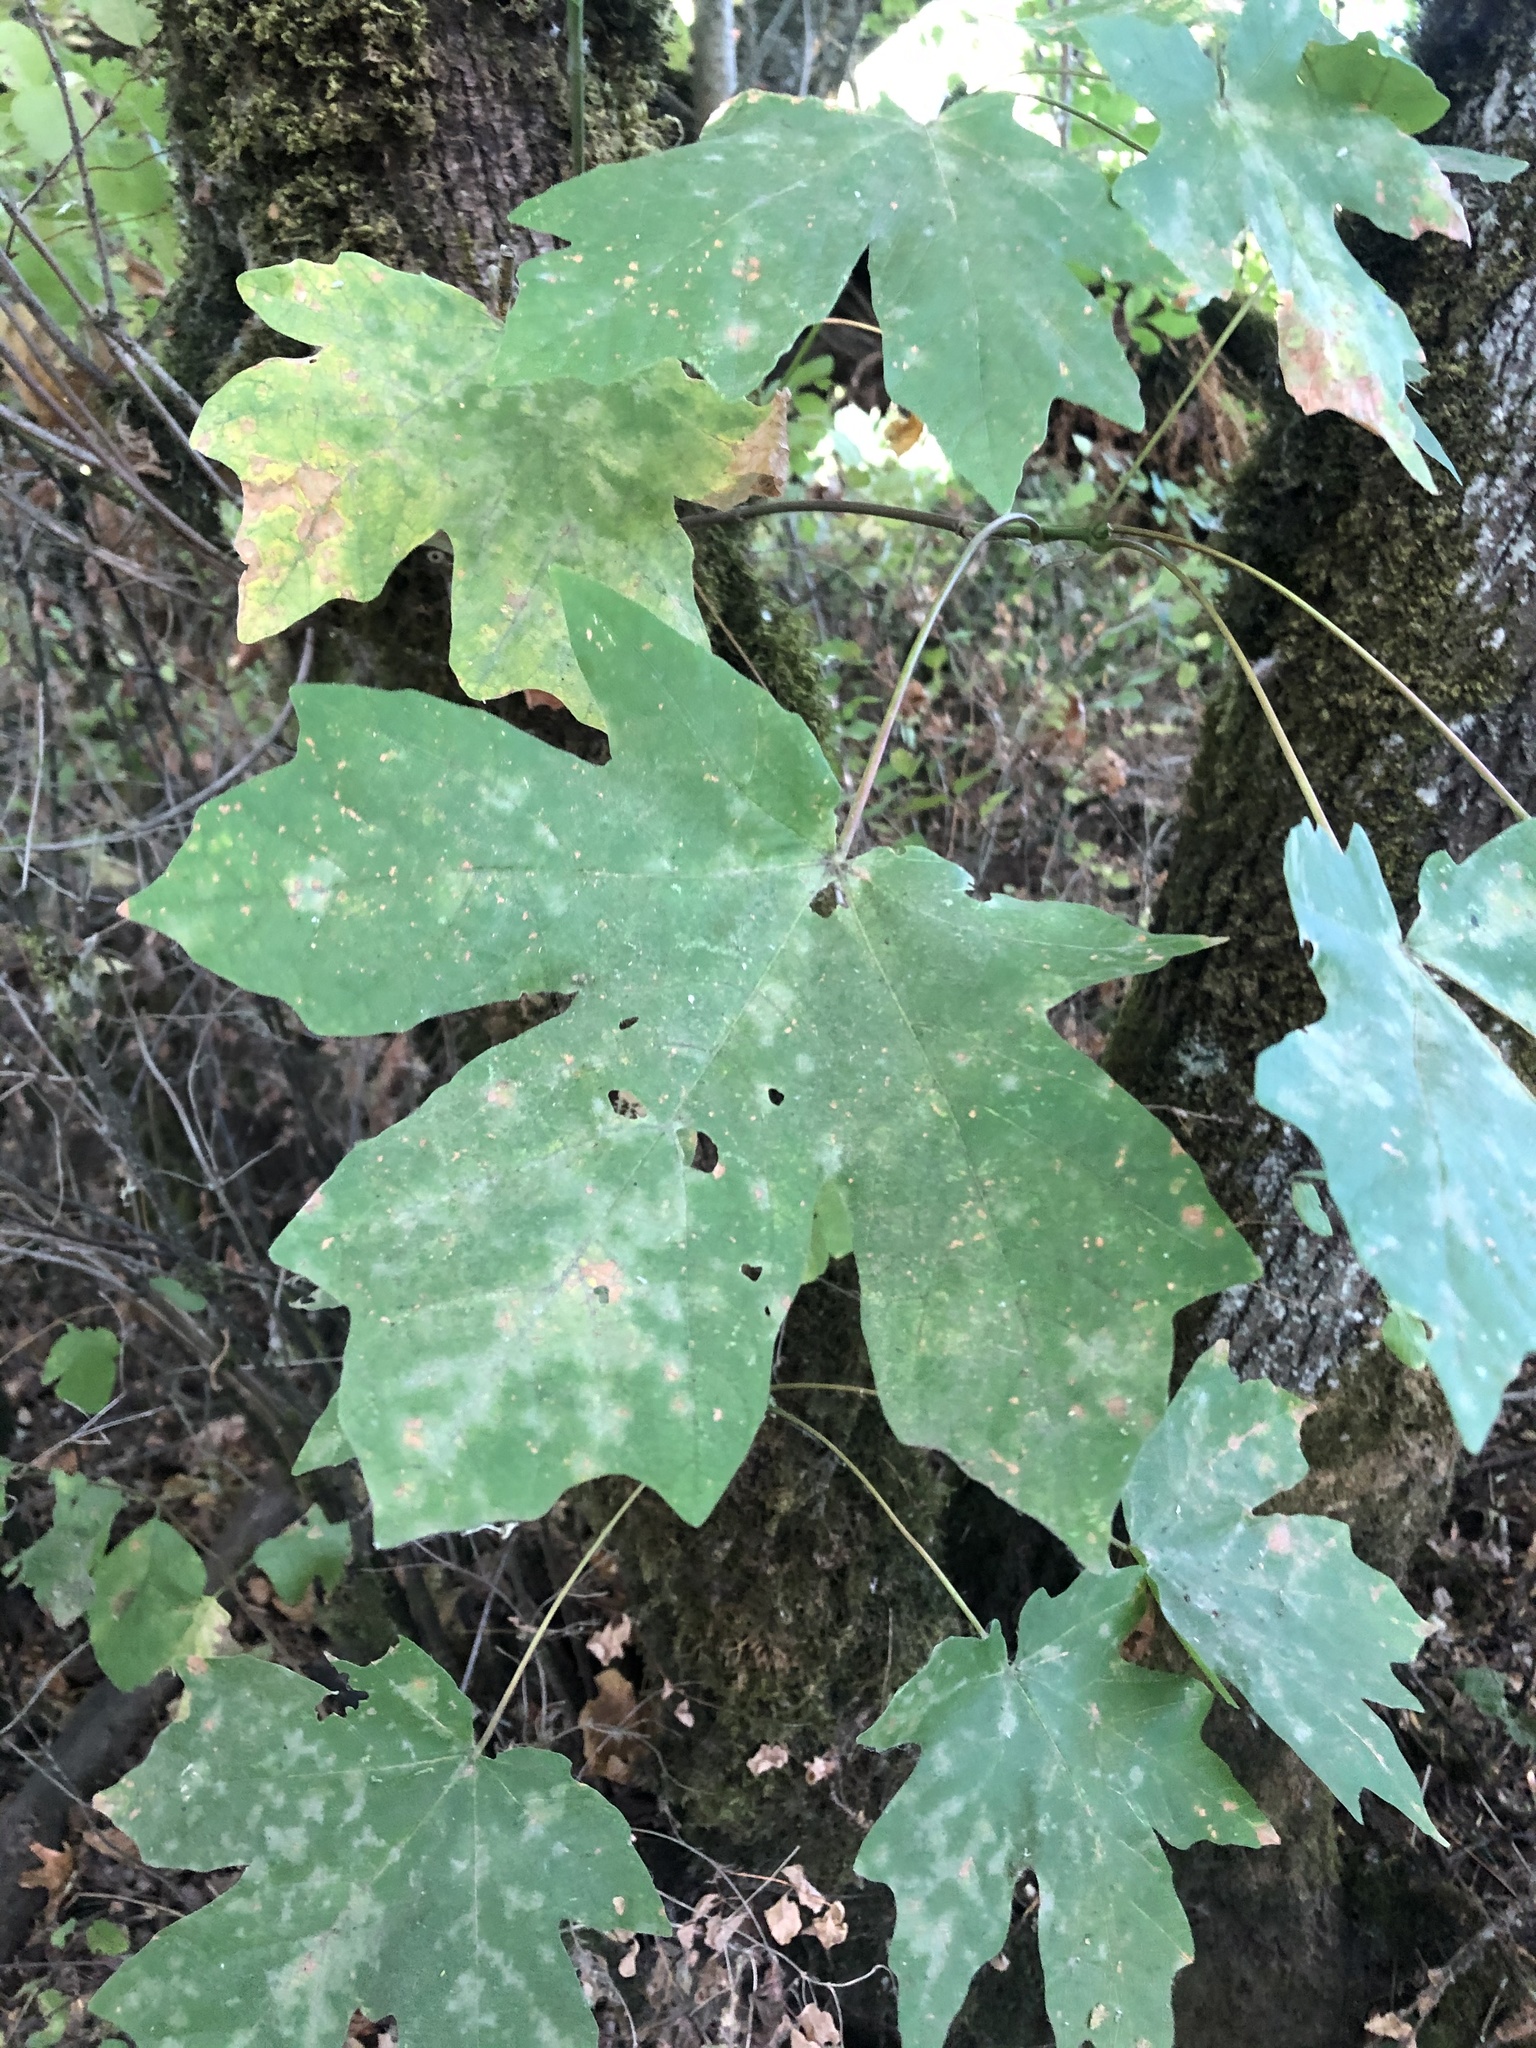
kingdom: Plantae
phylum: Tracheophyta
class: Magnoliopsida
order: Sapindales
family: Sapindaceae
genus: Acer
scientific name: Acer macrophyllum
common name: Oregon maple
